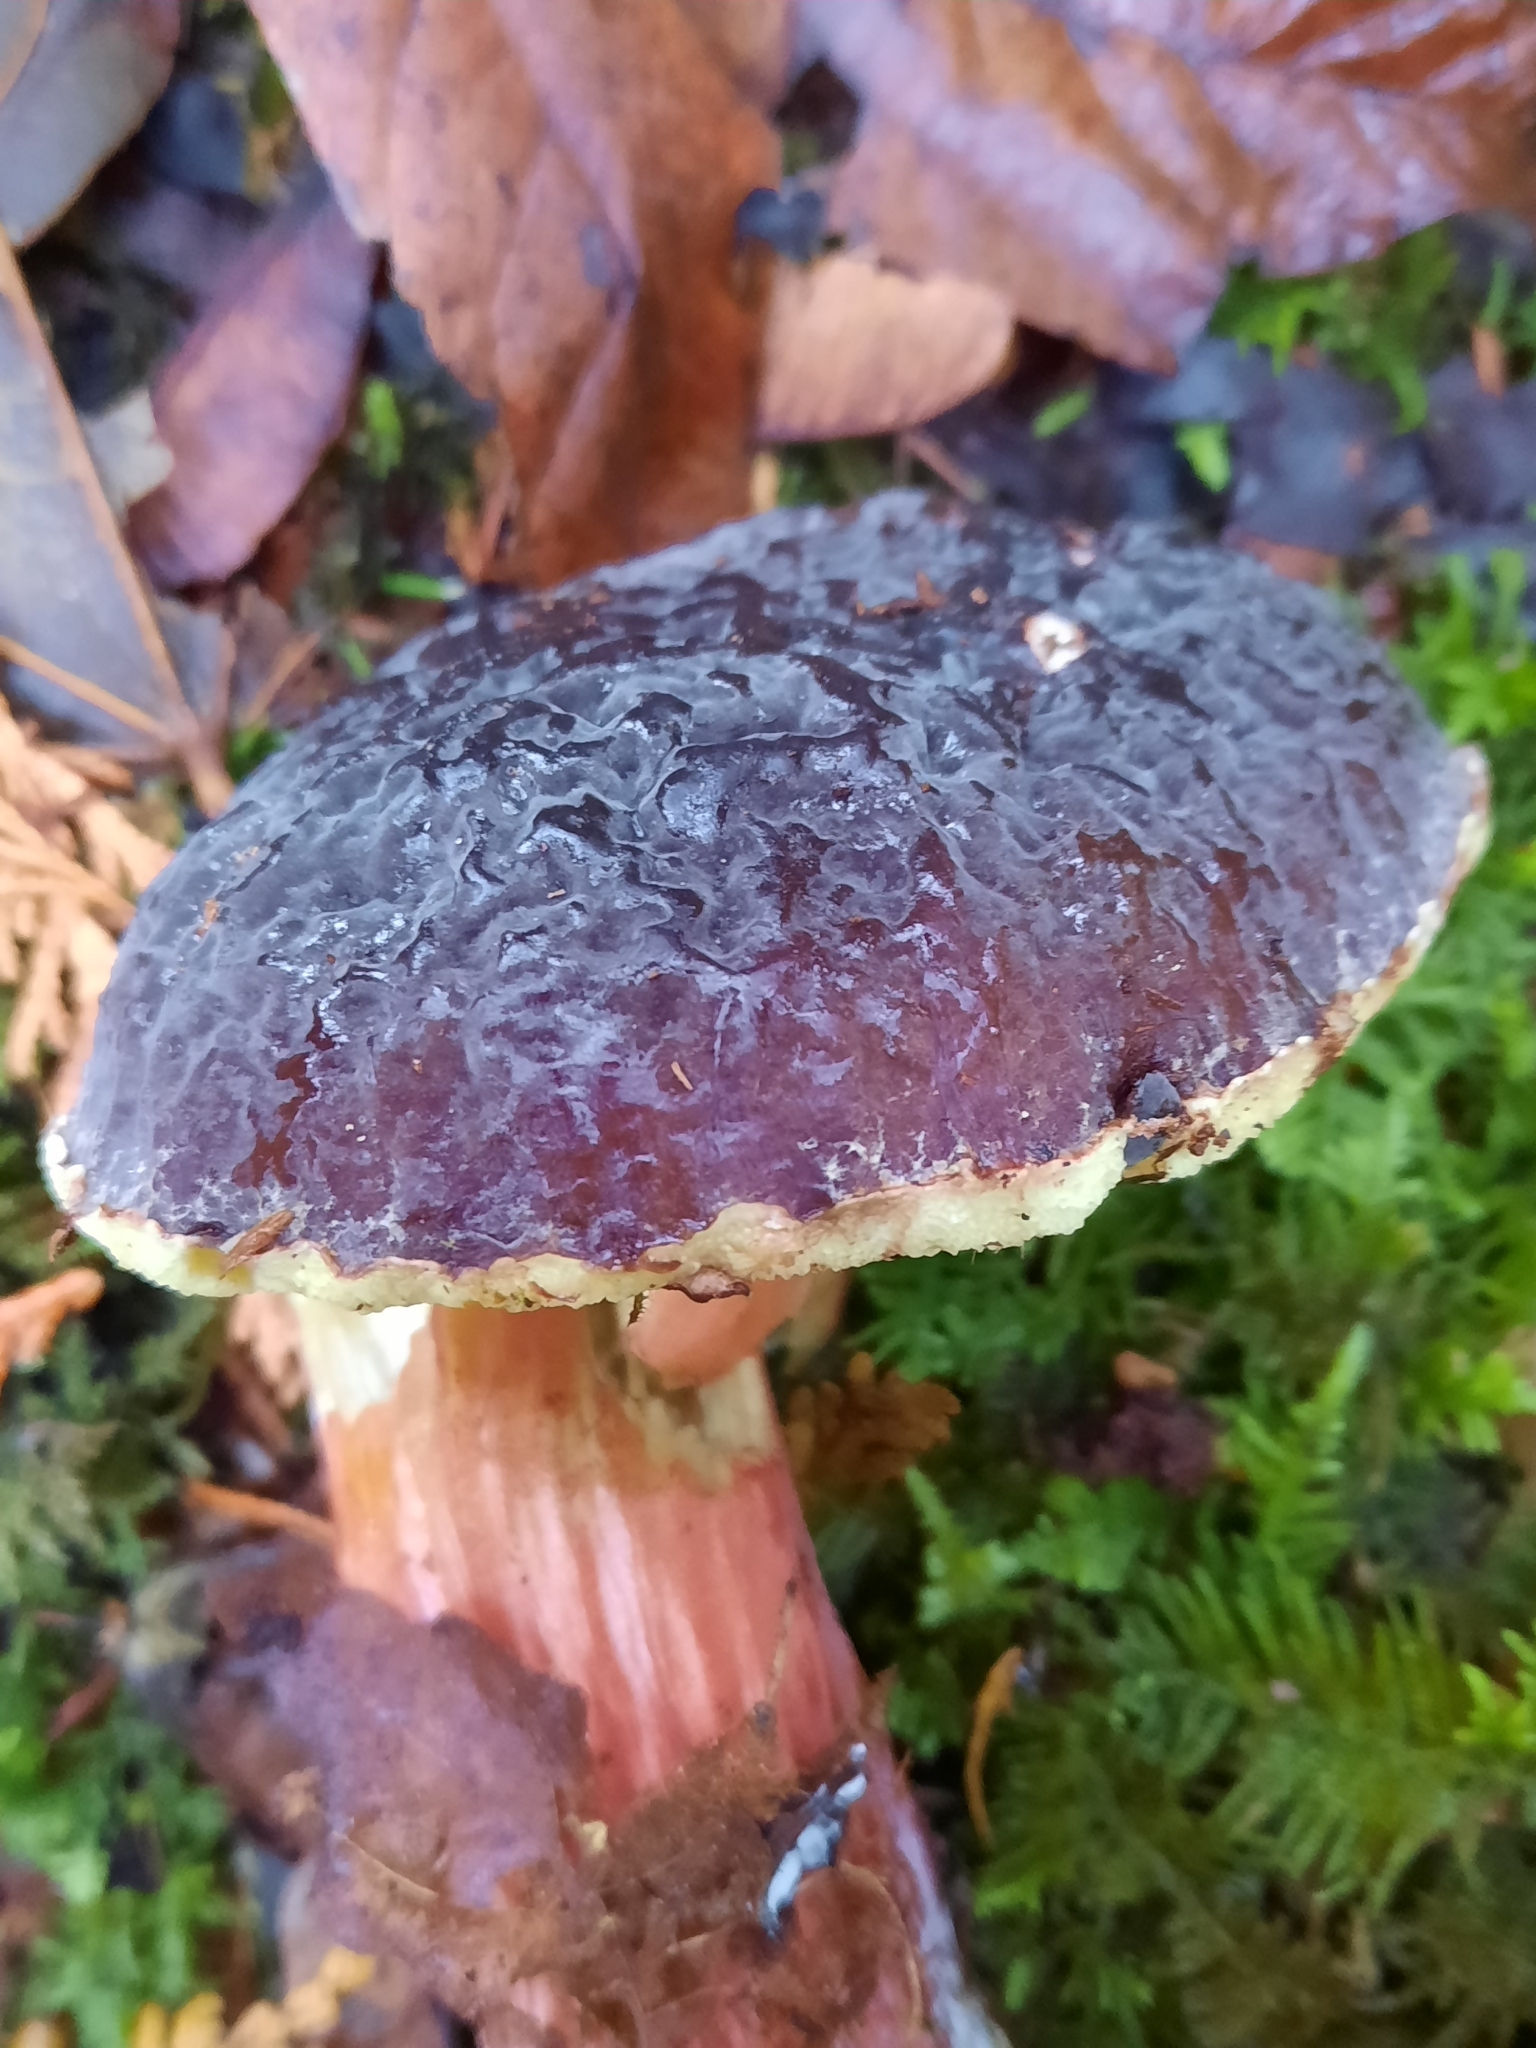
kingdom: Fungi
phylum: Basidiomycota
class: Agaricomycetes
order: Boletales
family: Boletaceae
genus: Xerocomellus
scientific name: Xerocomellus atropurpureus
